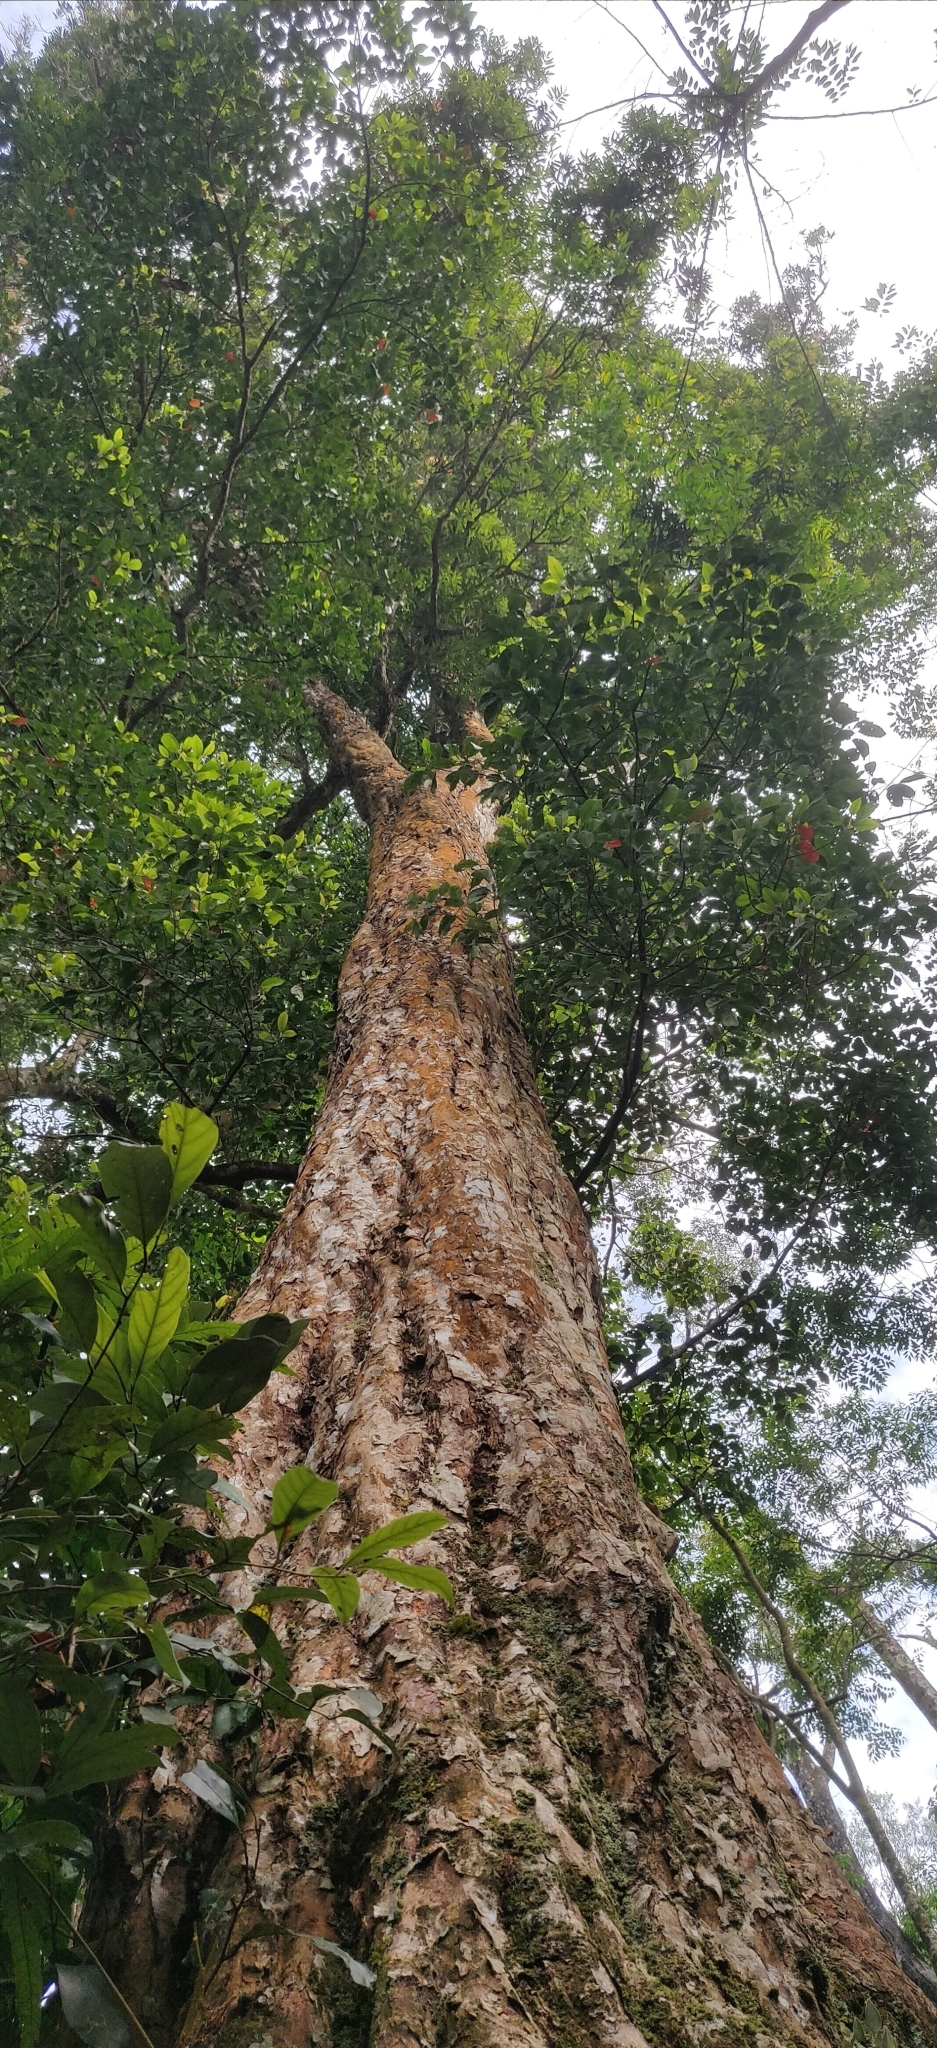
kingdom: Plantae
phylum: Tracheophyta
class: Magnoliopsida
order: Malpighiales
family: Calophyllaceae
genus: Mesua
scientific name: Mesua ferrea
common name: Mesua
